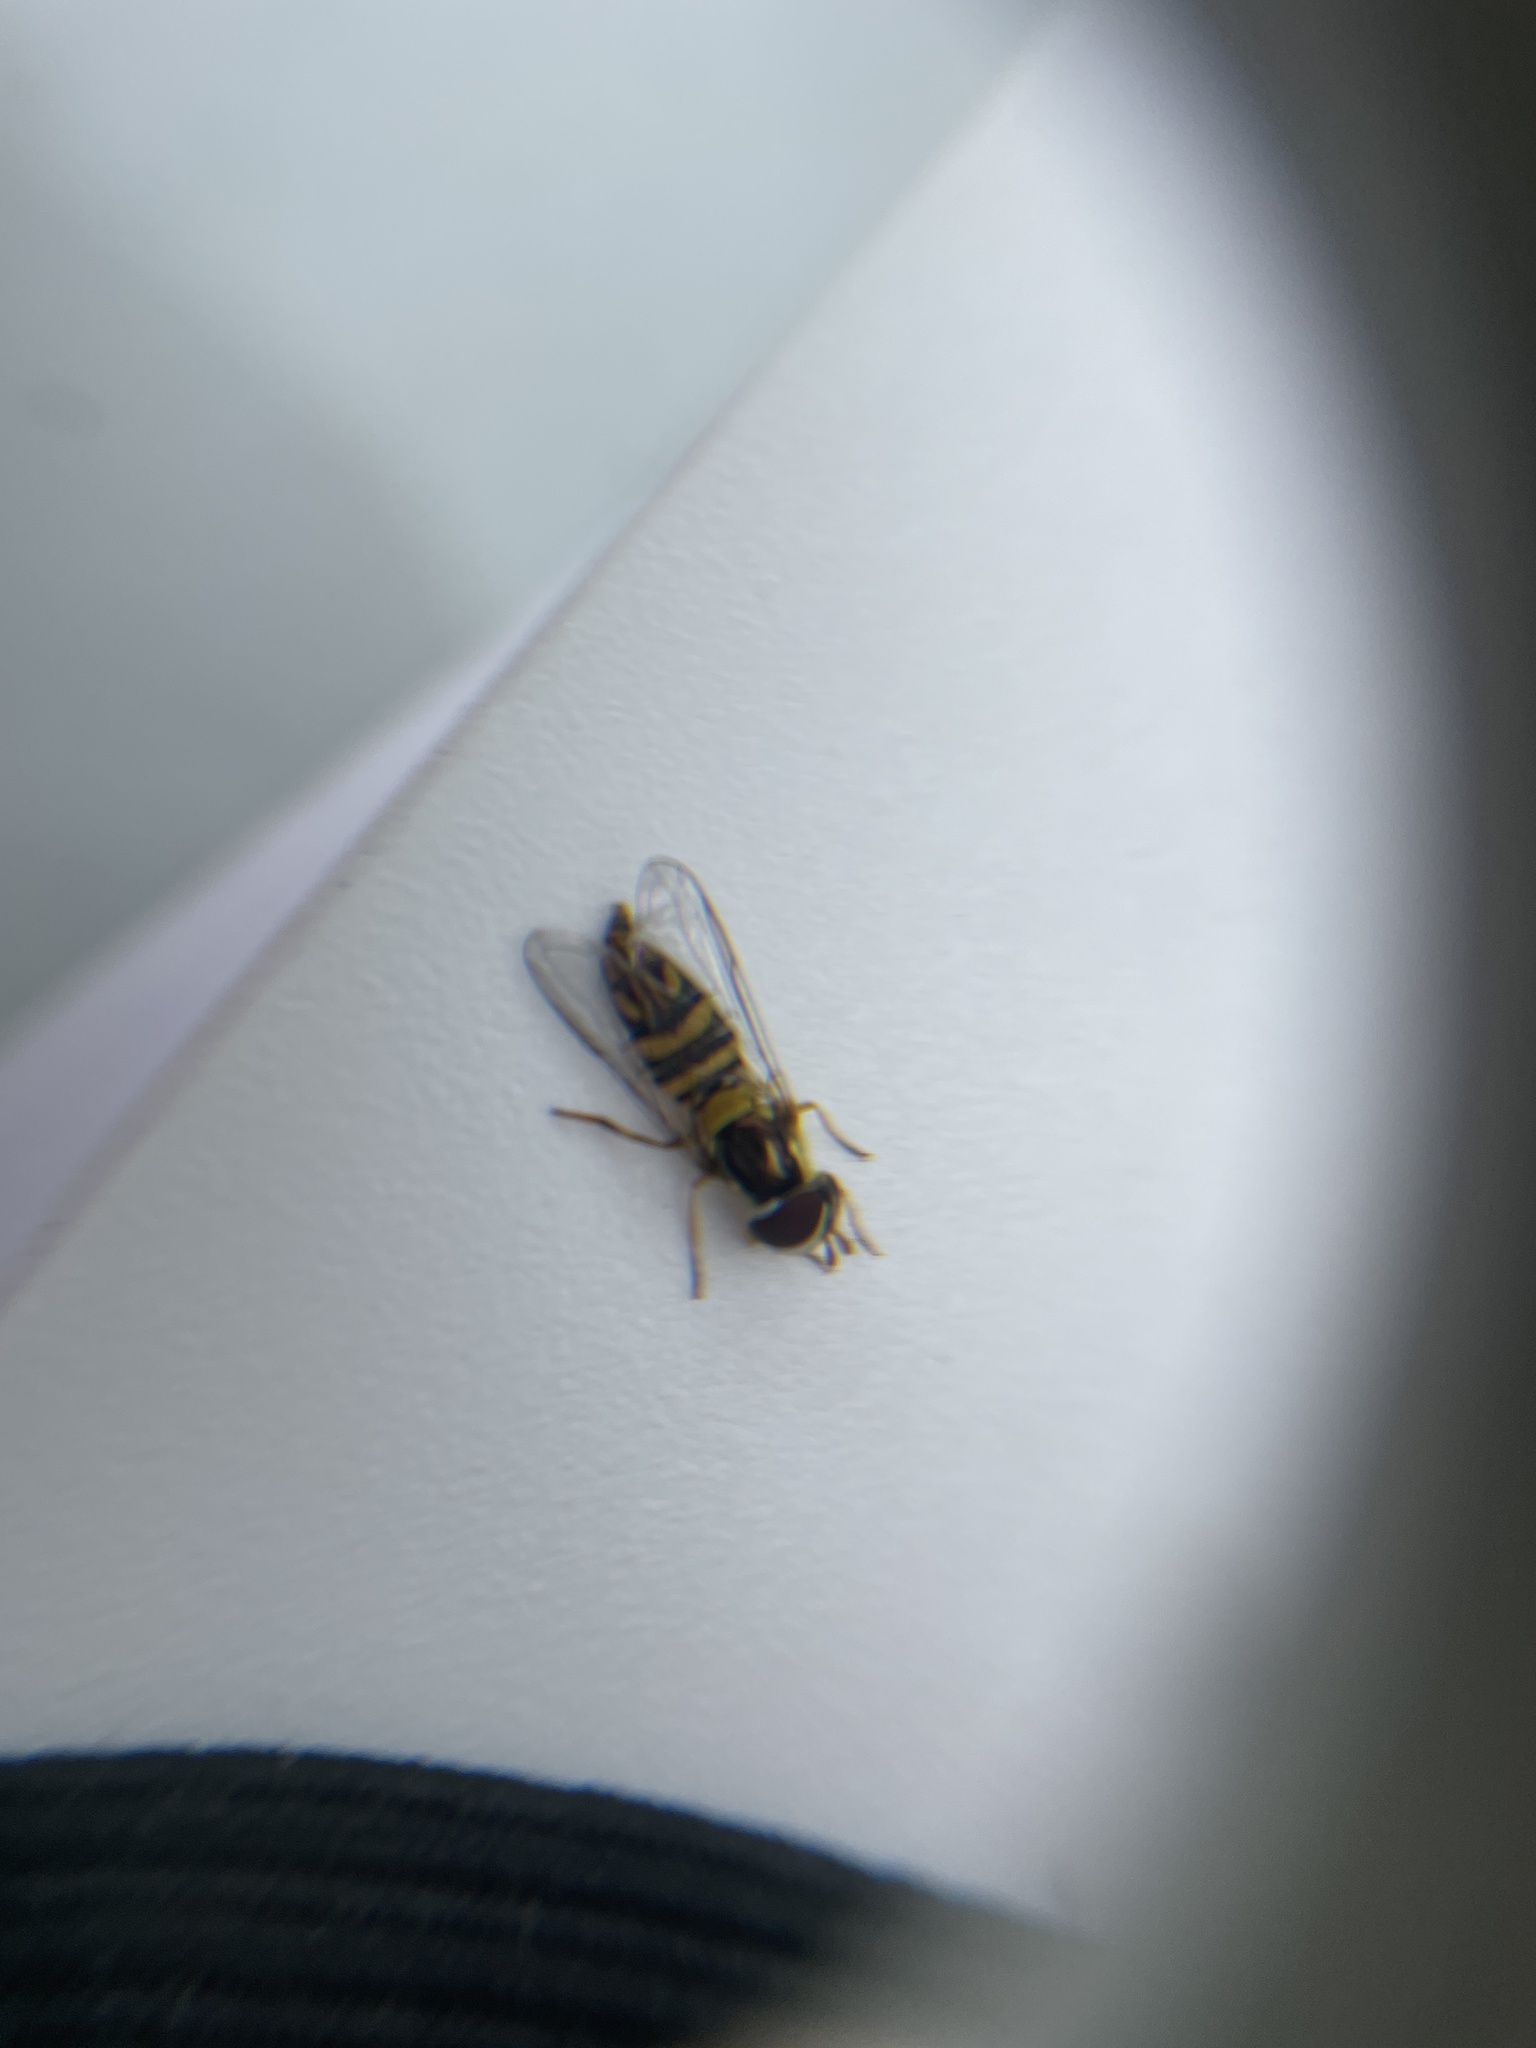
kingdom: Animalia
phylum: Arthropoda
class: Insecta
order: Diptera
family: Syrphidae
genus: Allograpta
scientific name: Allograpta obliqua
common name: Common oblique syrphid
